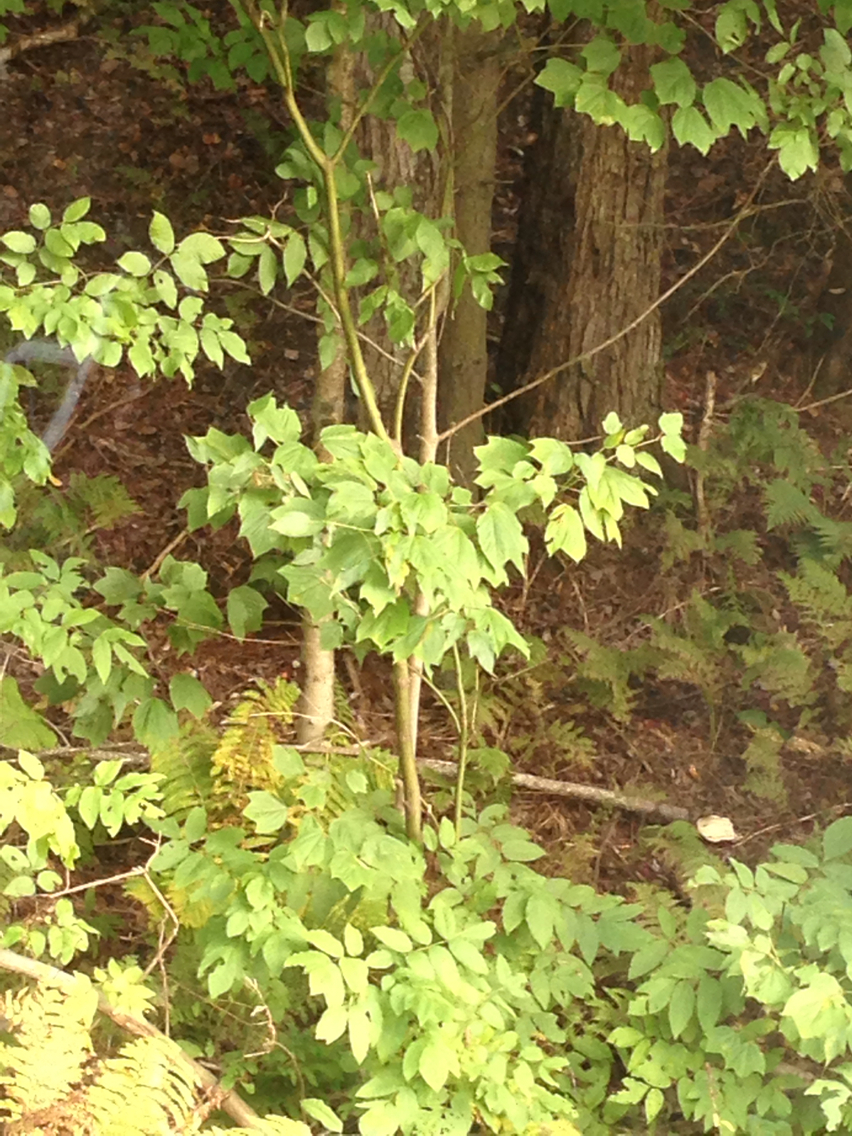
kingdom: Plantae
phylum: Tracheophyta
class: Magnoliopsida
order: Sapindales
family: Sapindaceae
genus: Acer
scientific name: Acer pensylvanicum
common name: Moosewood
